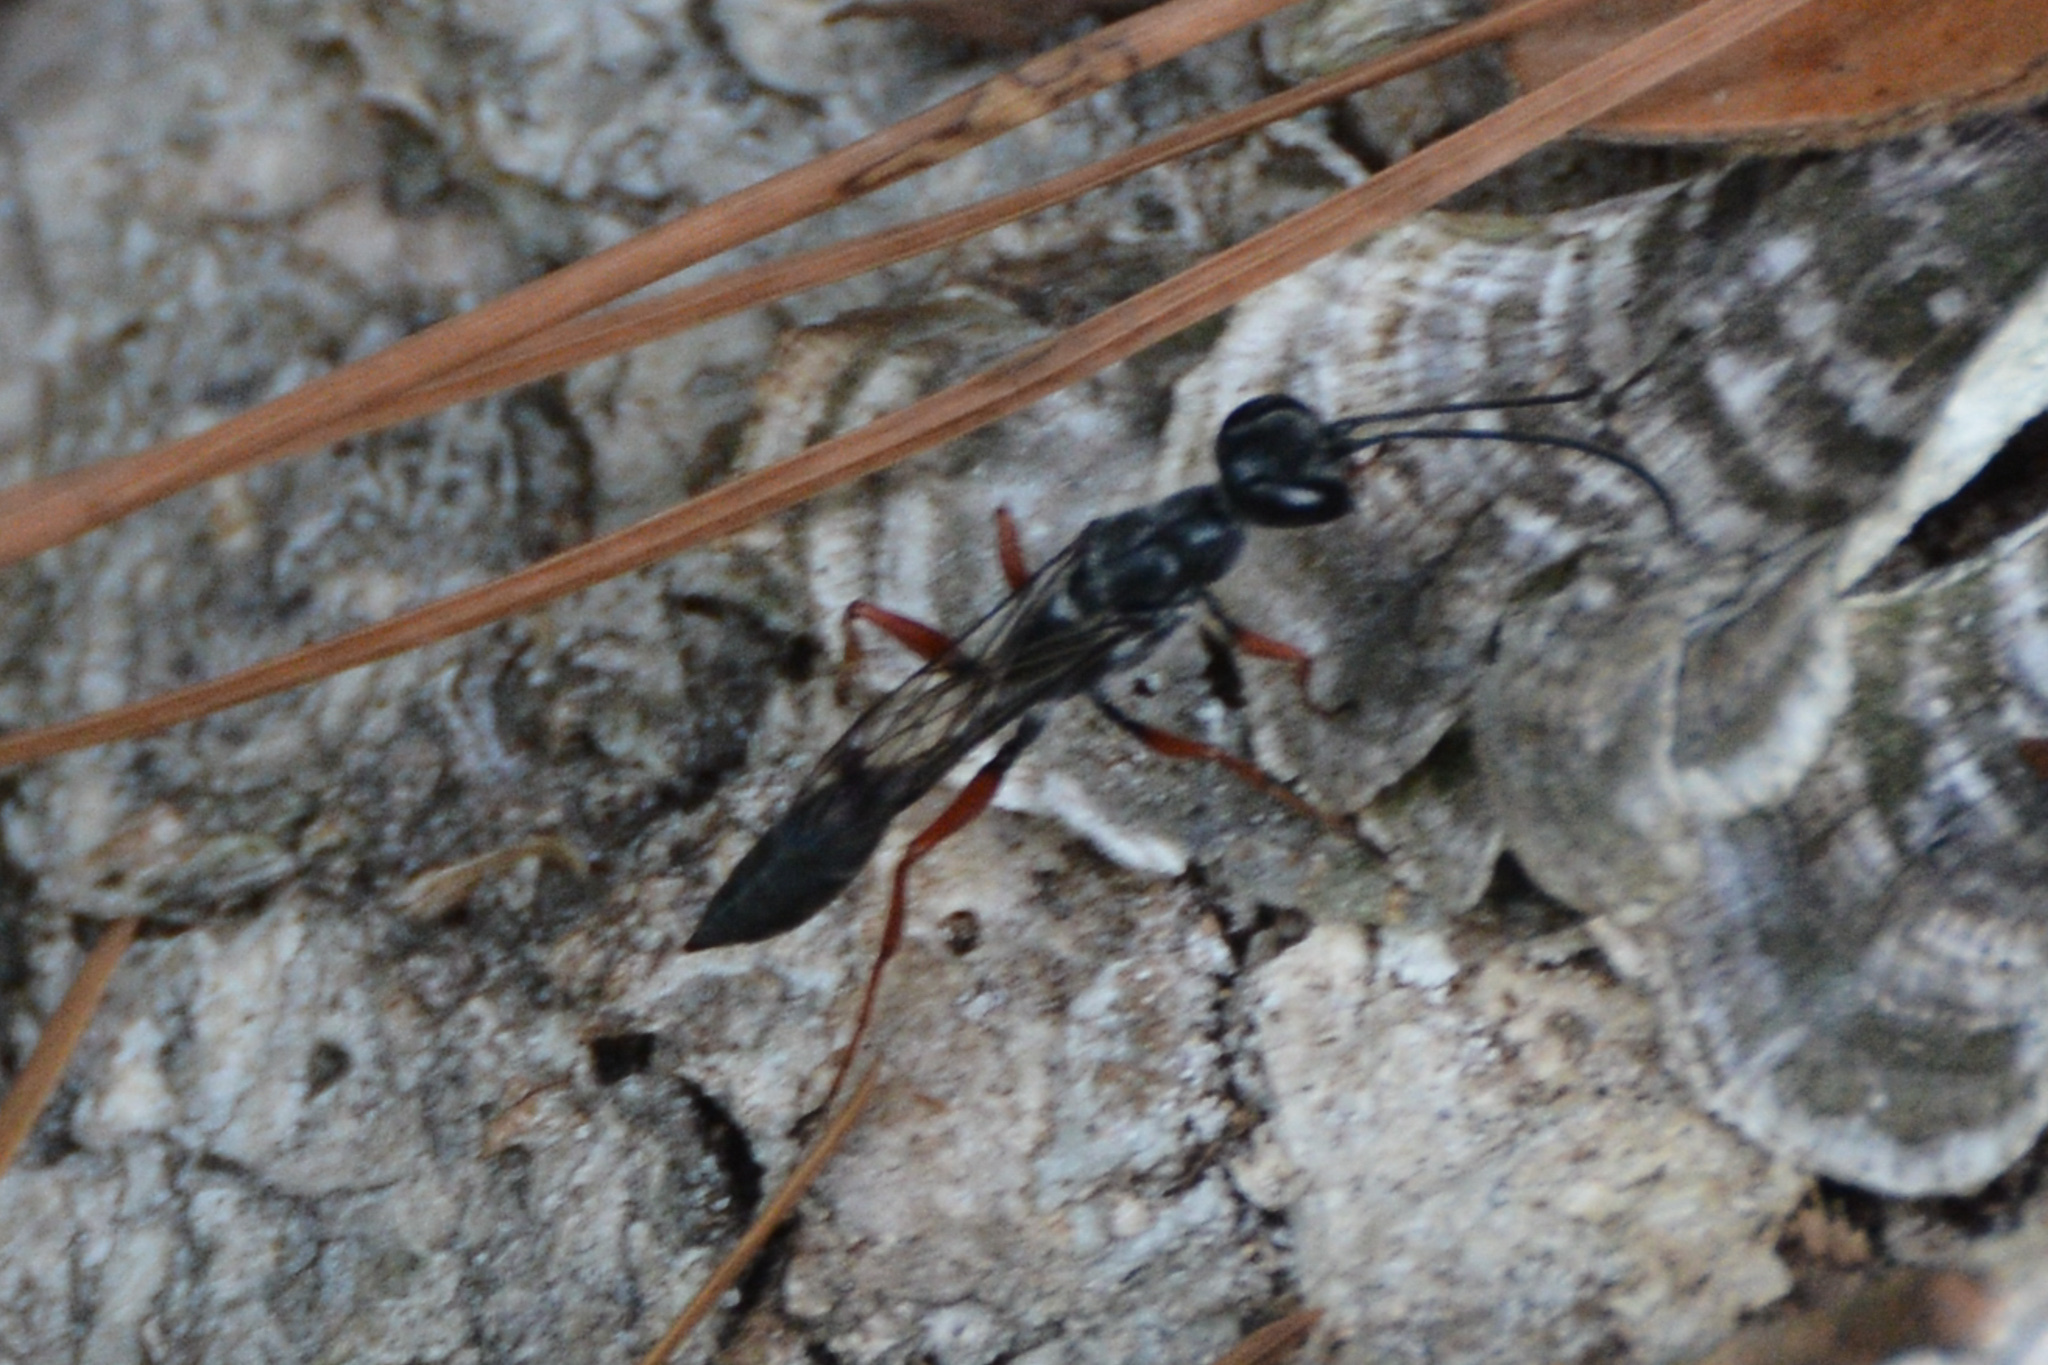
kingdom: Animalia
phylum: Arthropoda
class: Insecta
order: Hymenoptera
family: Sphecidae
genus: Podium
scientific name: Podium rufipes
